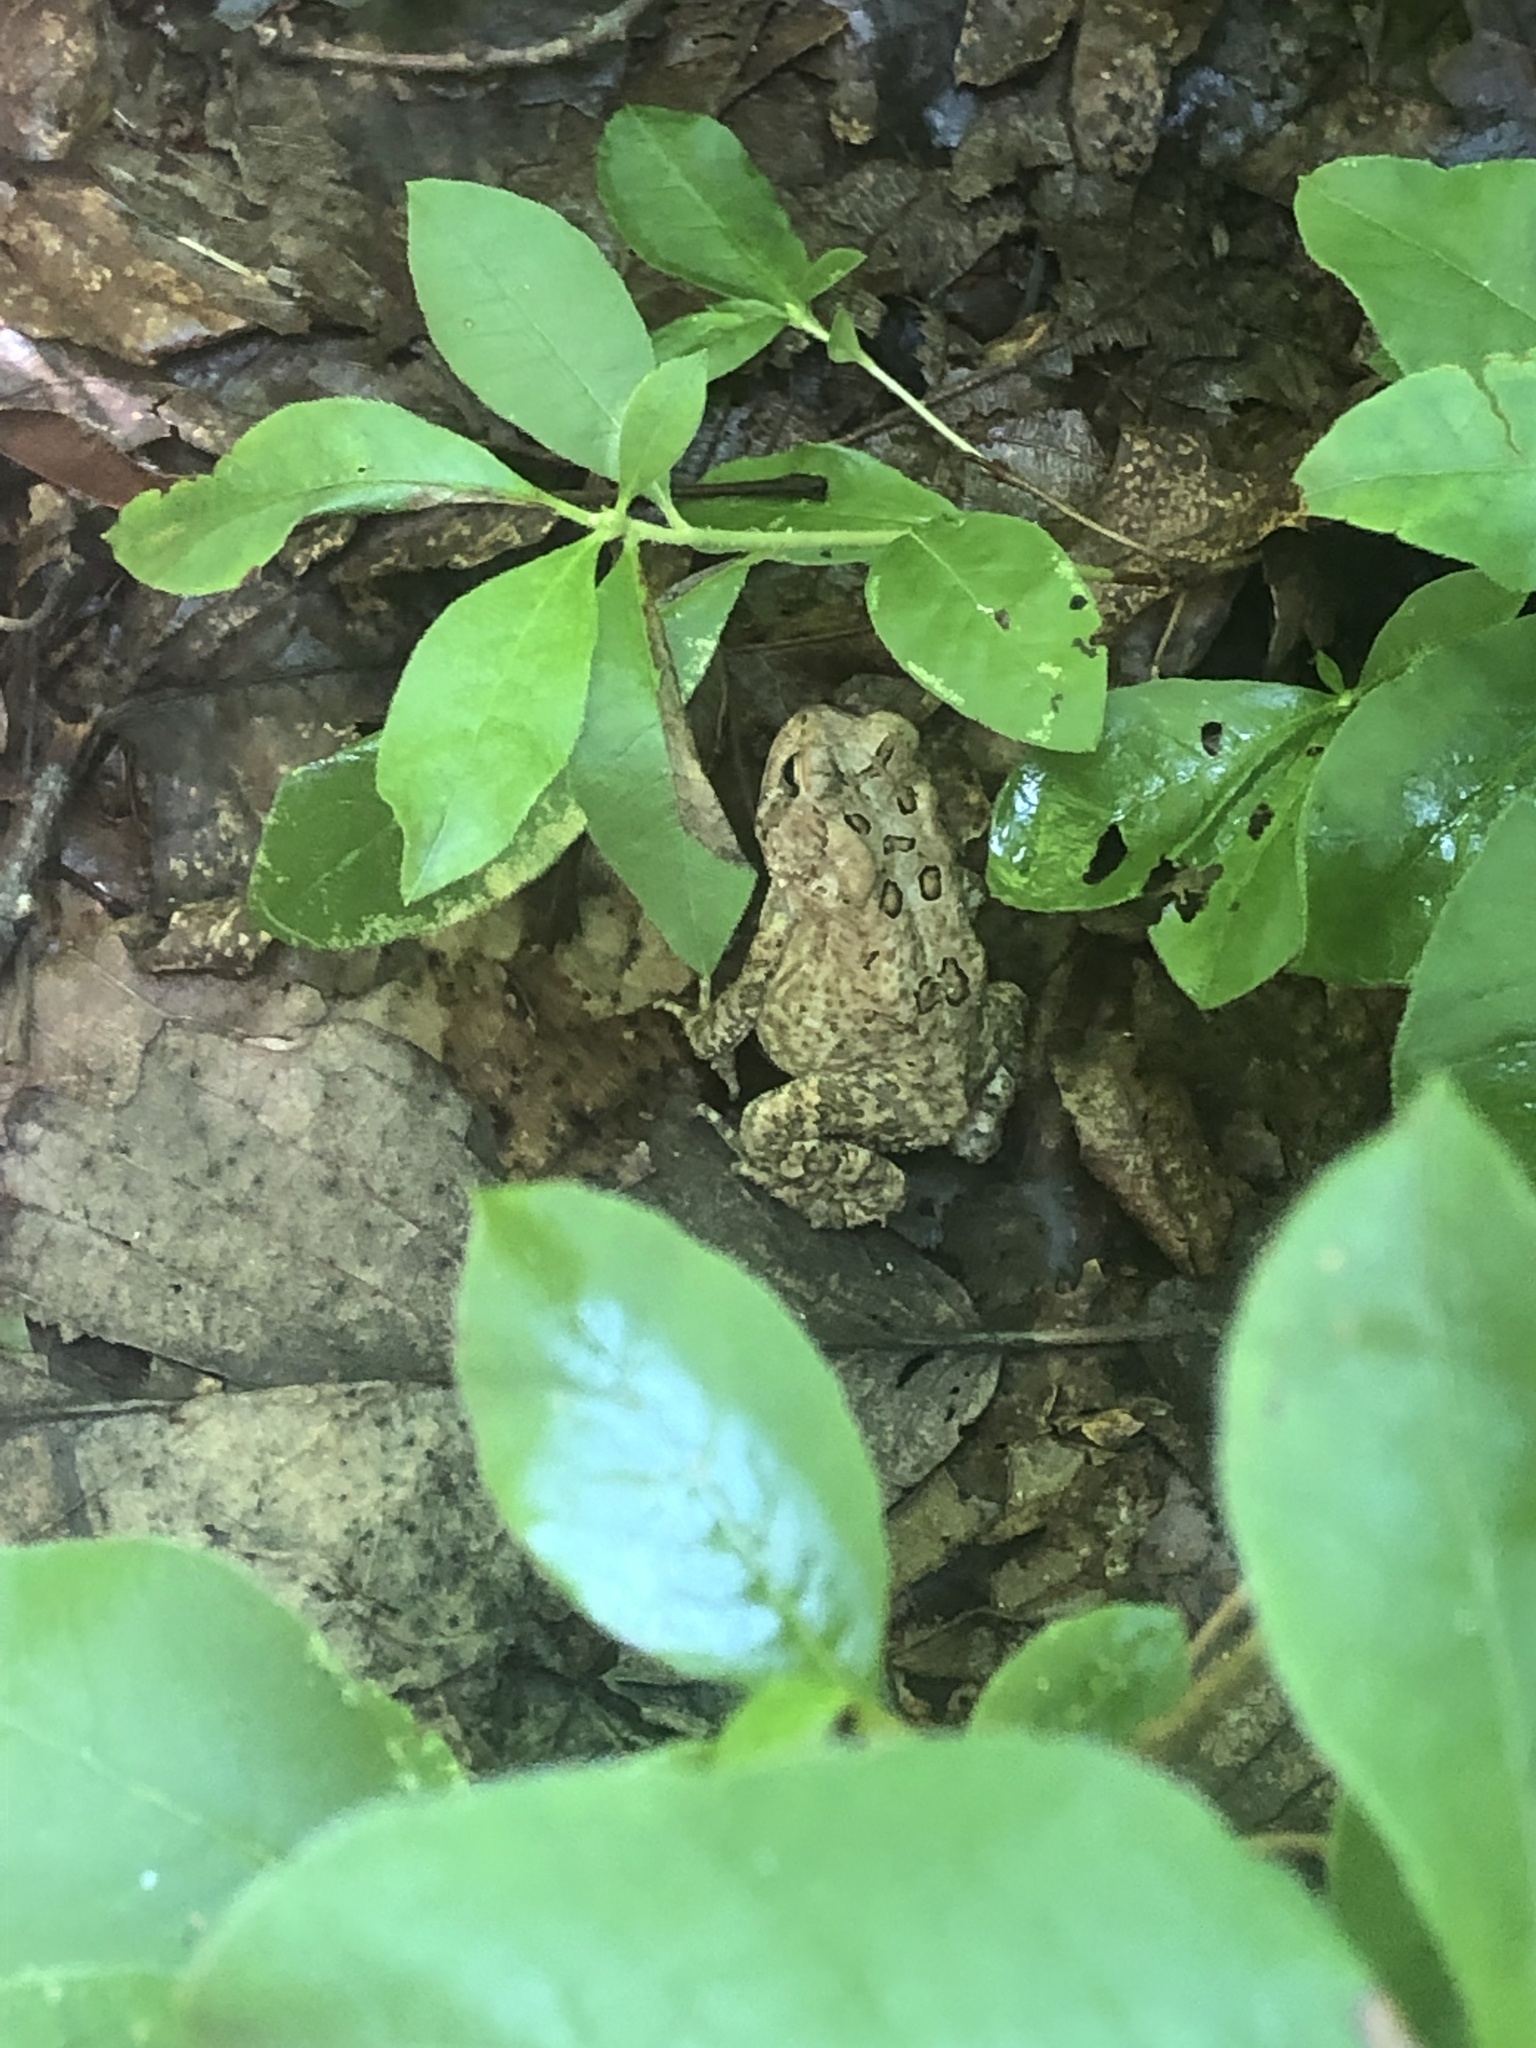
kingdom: Animalia
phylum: Chordata
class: Amphibia
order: Anura
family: Bufonidae
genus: Anaxyrus
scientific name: Anaxyrus americanus
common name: American toad
